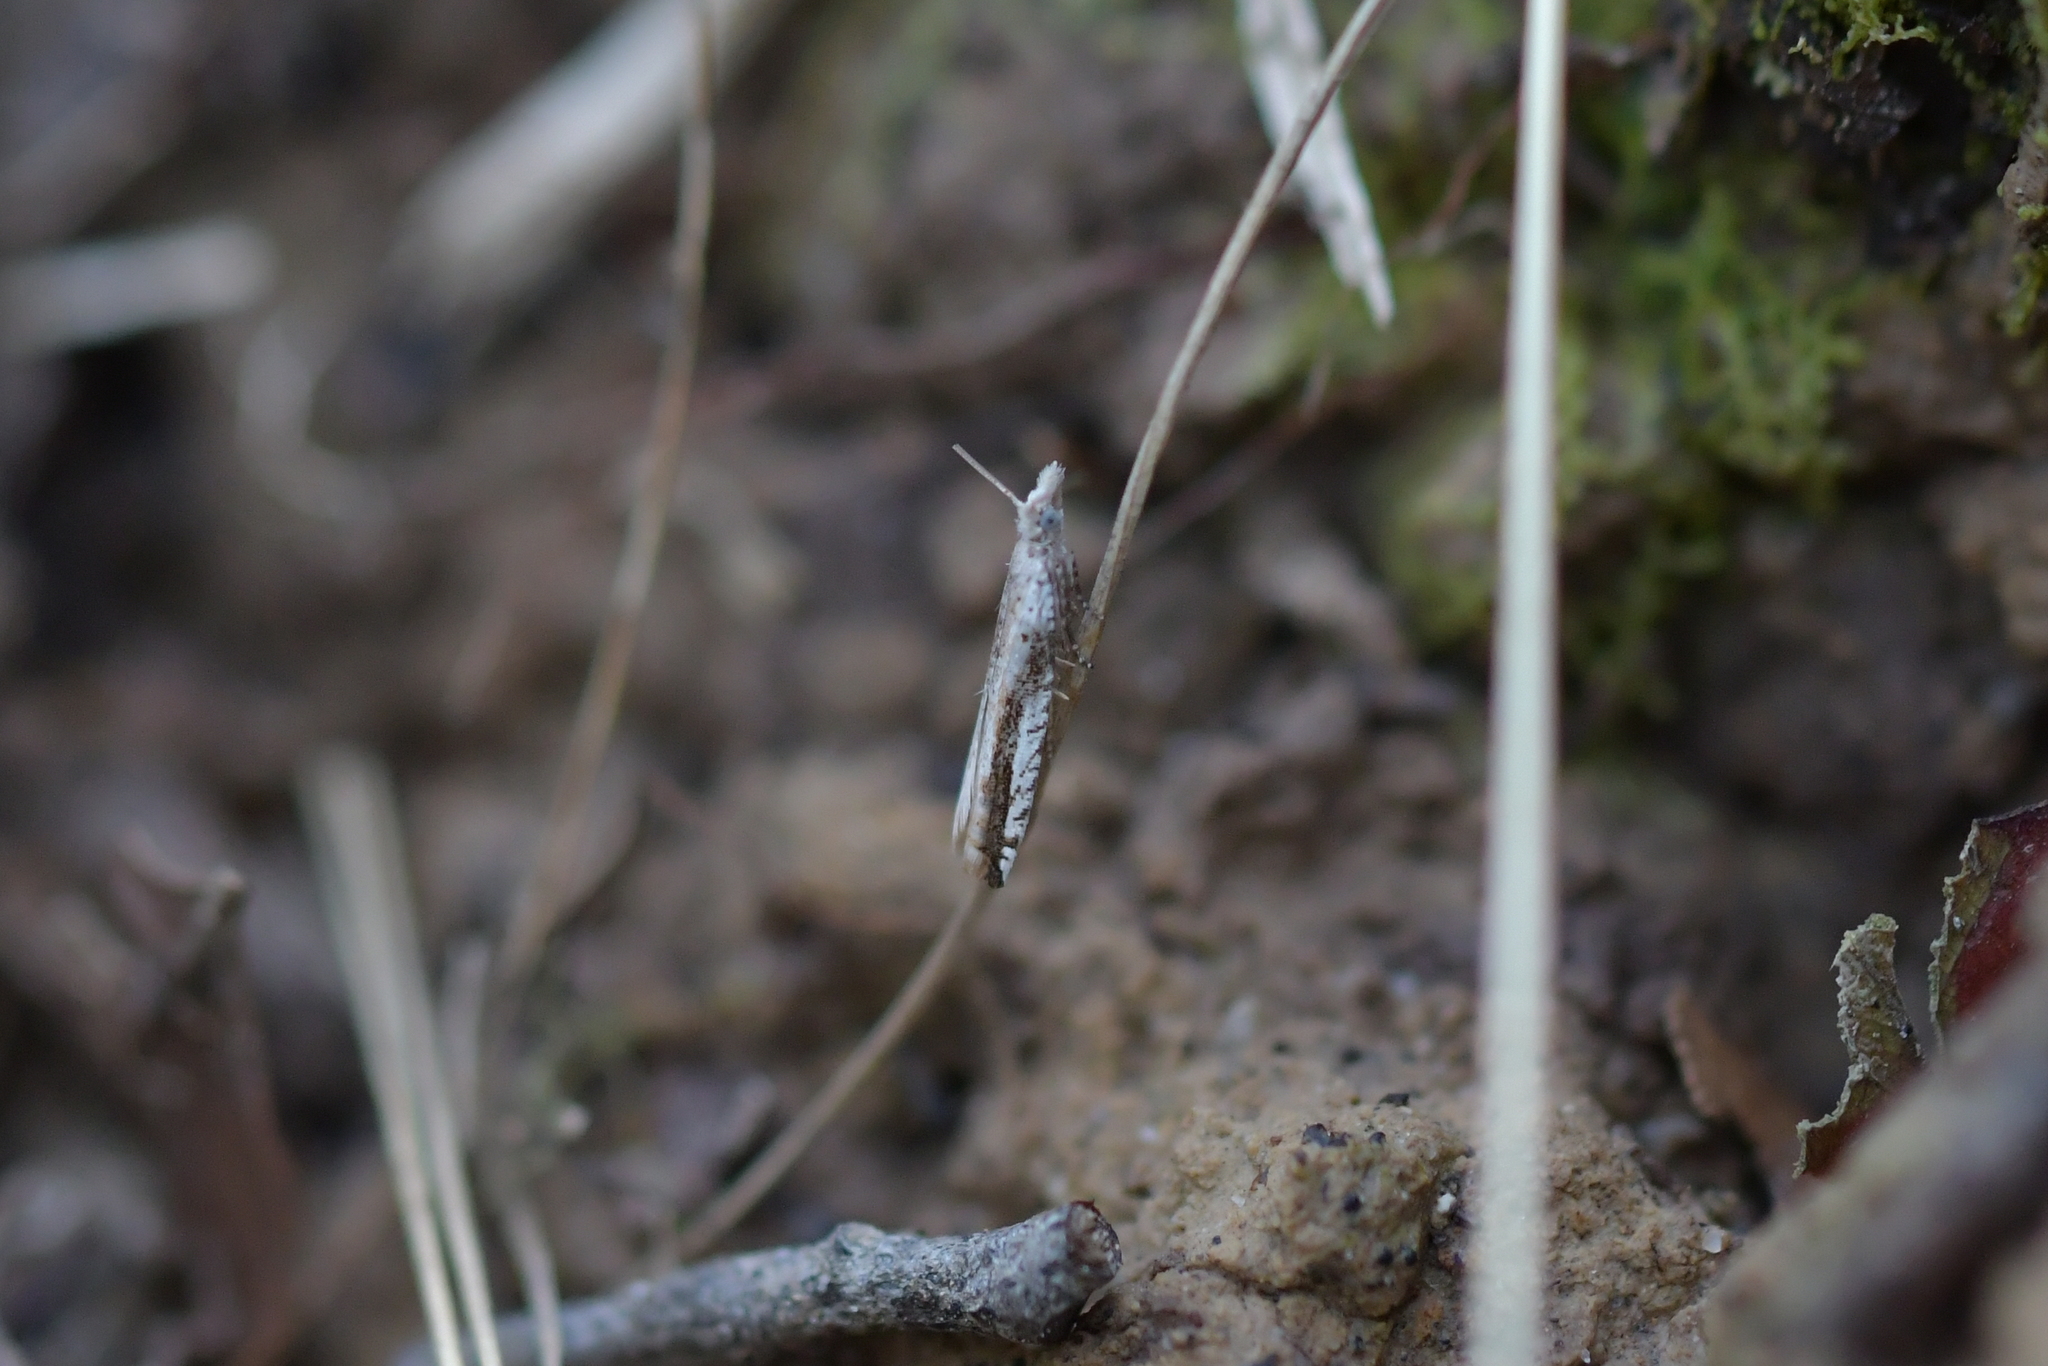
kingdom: Animalia
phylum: Arthropoda
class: Insecta
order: Lepidoptera
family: Tortricidae
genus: Holocola
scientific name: Holocola
